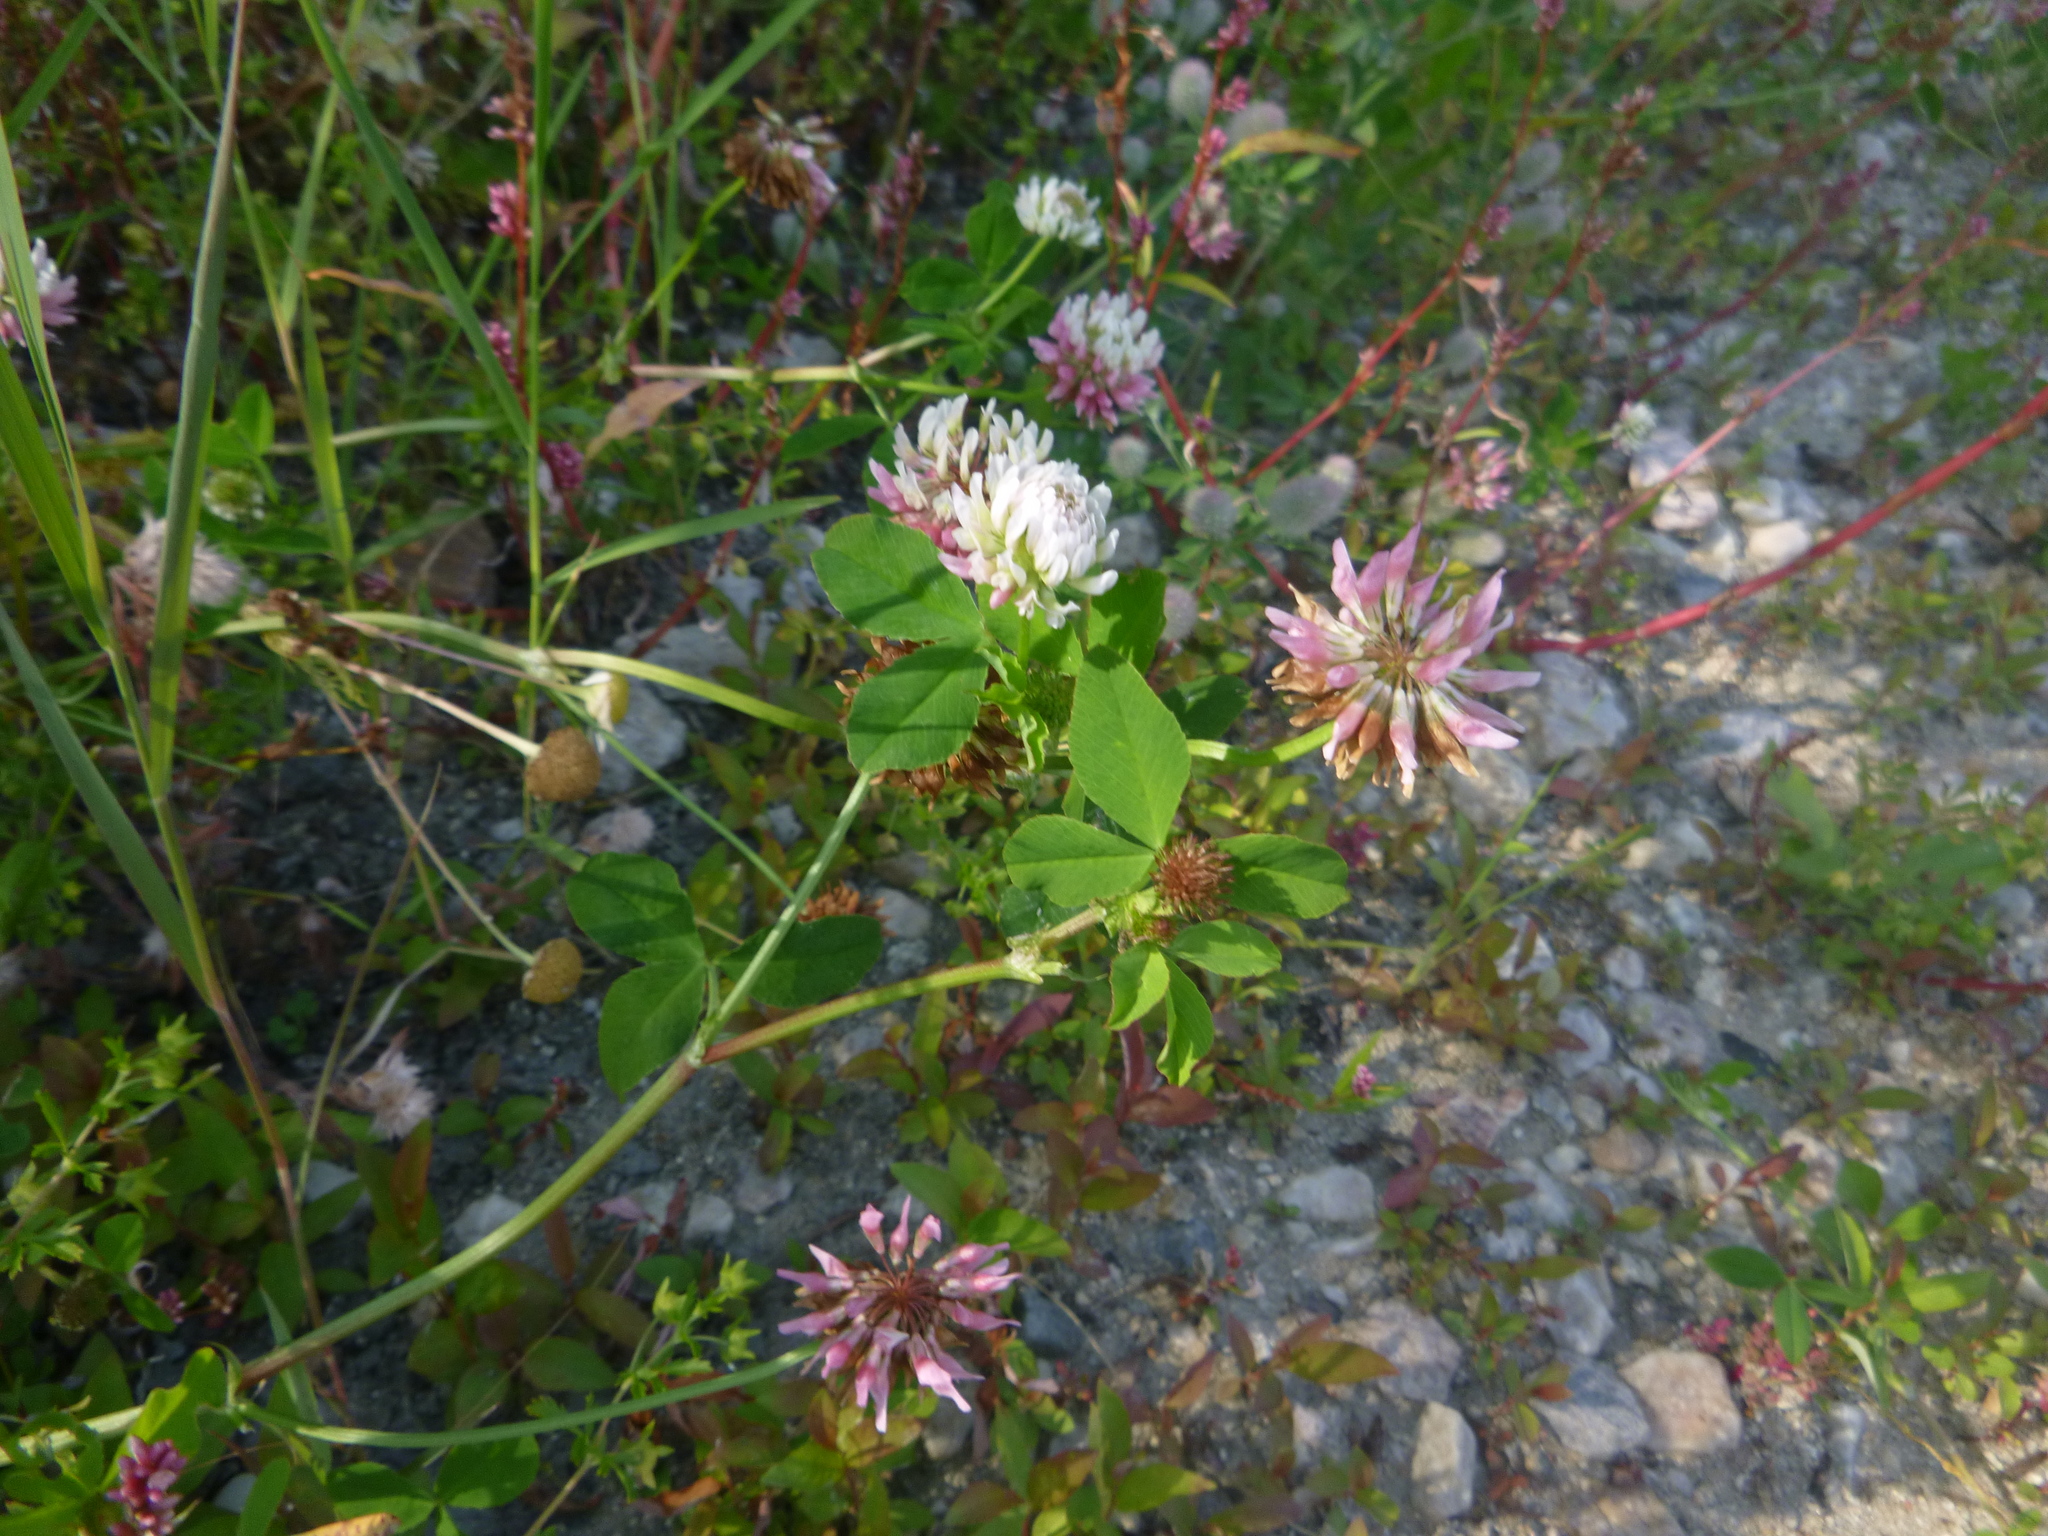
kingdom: Plantae
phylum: Tracheophyta
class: Magnoliopsida
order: Fabales
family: Fabaceae
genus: Trifolium
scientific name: Trifolium hybridum
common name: Alsike clover
